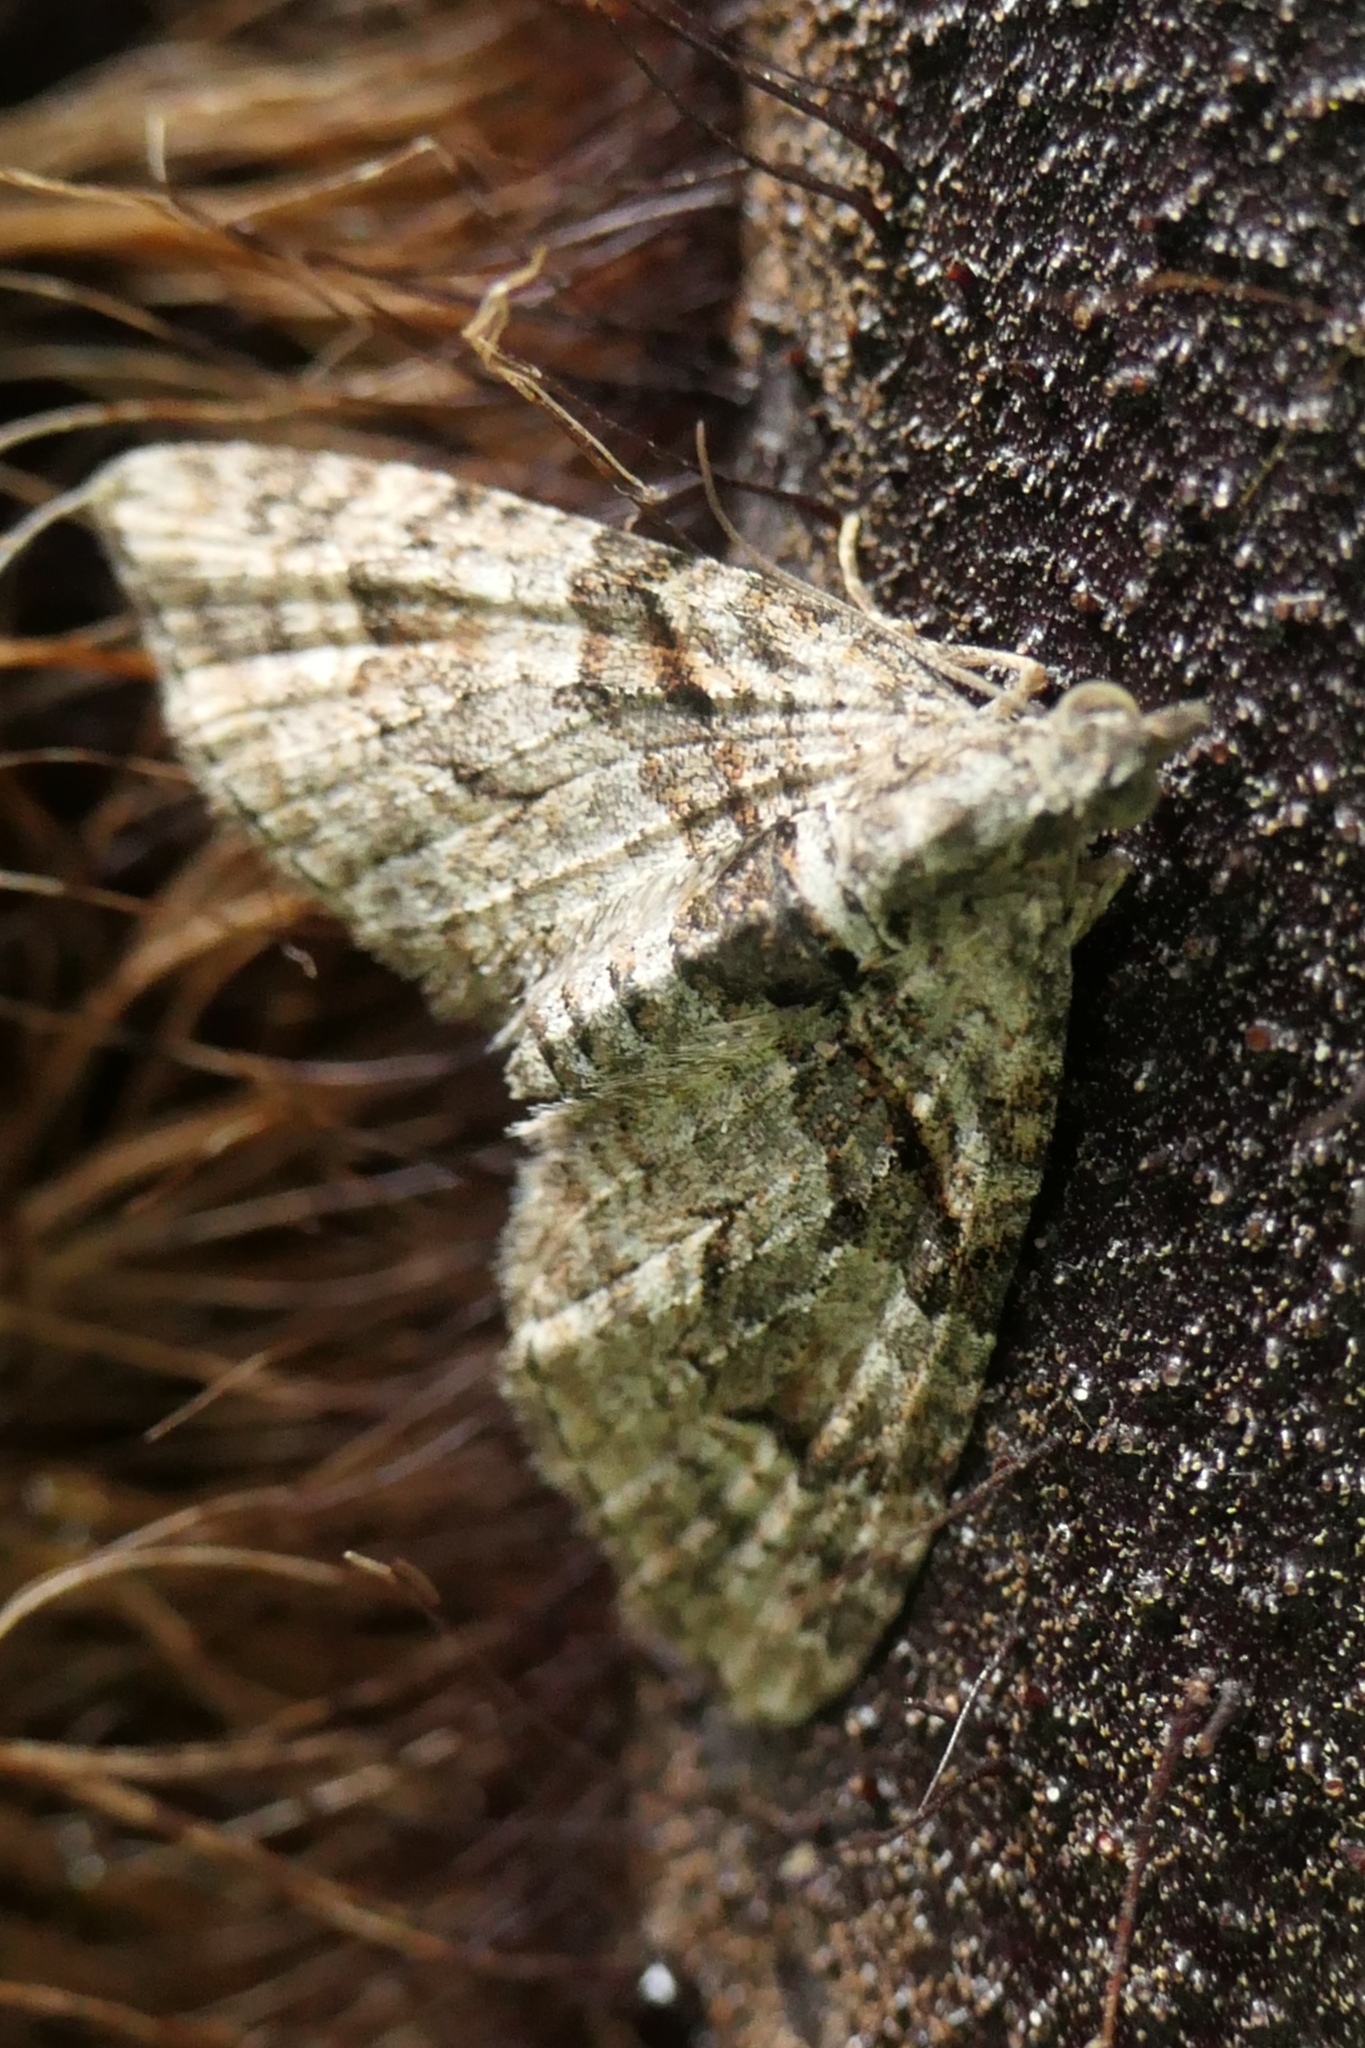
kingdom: Animalia
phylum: Arthropoda
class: Insecta
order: Lepidoptera
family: Geometridae
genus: Phrissogonus
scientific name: Phrissogonus laticostata
